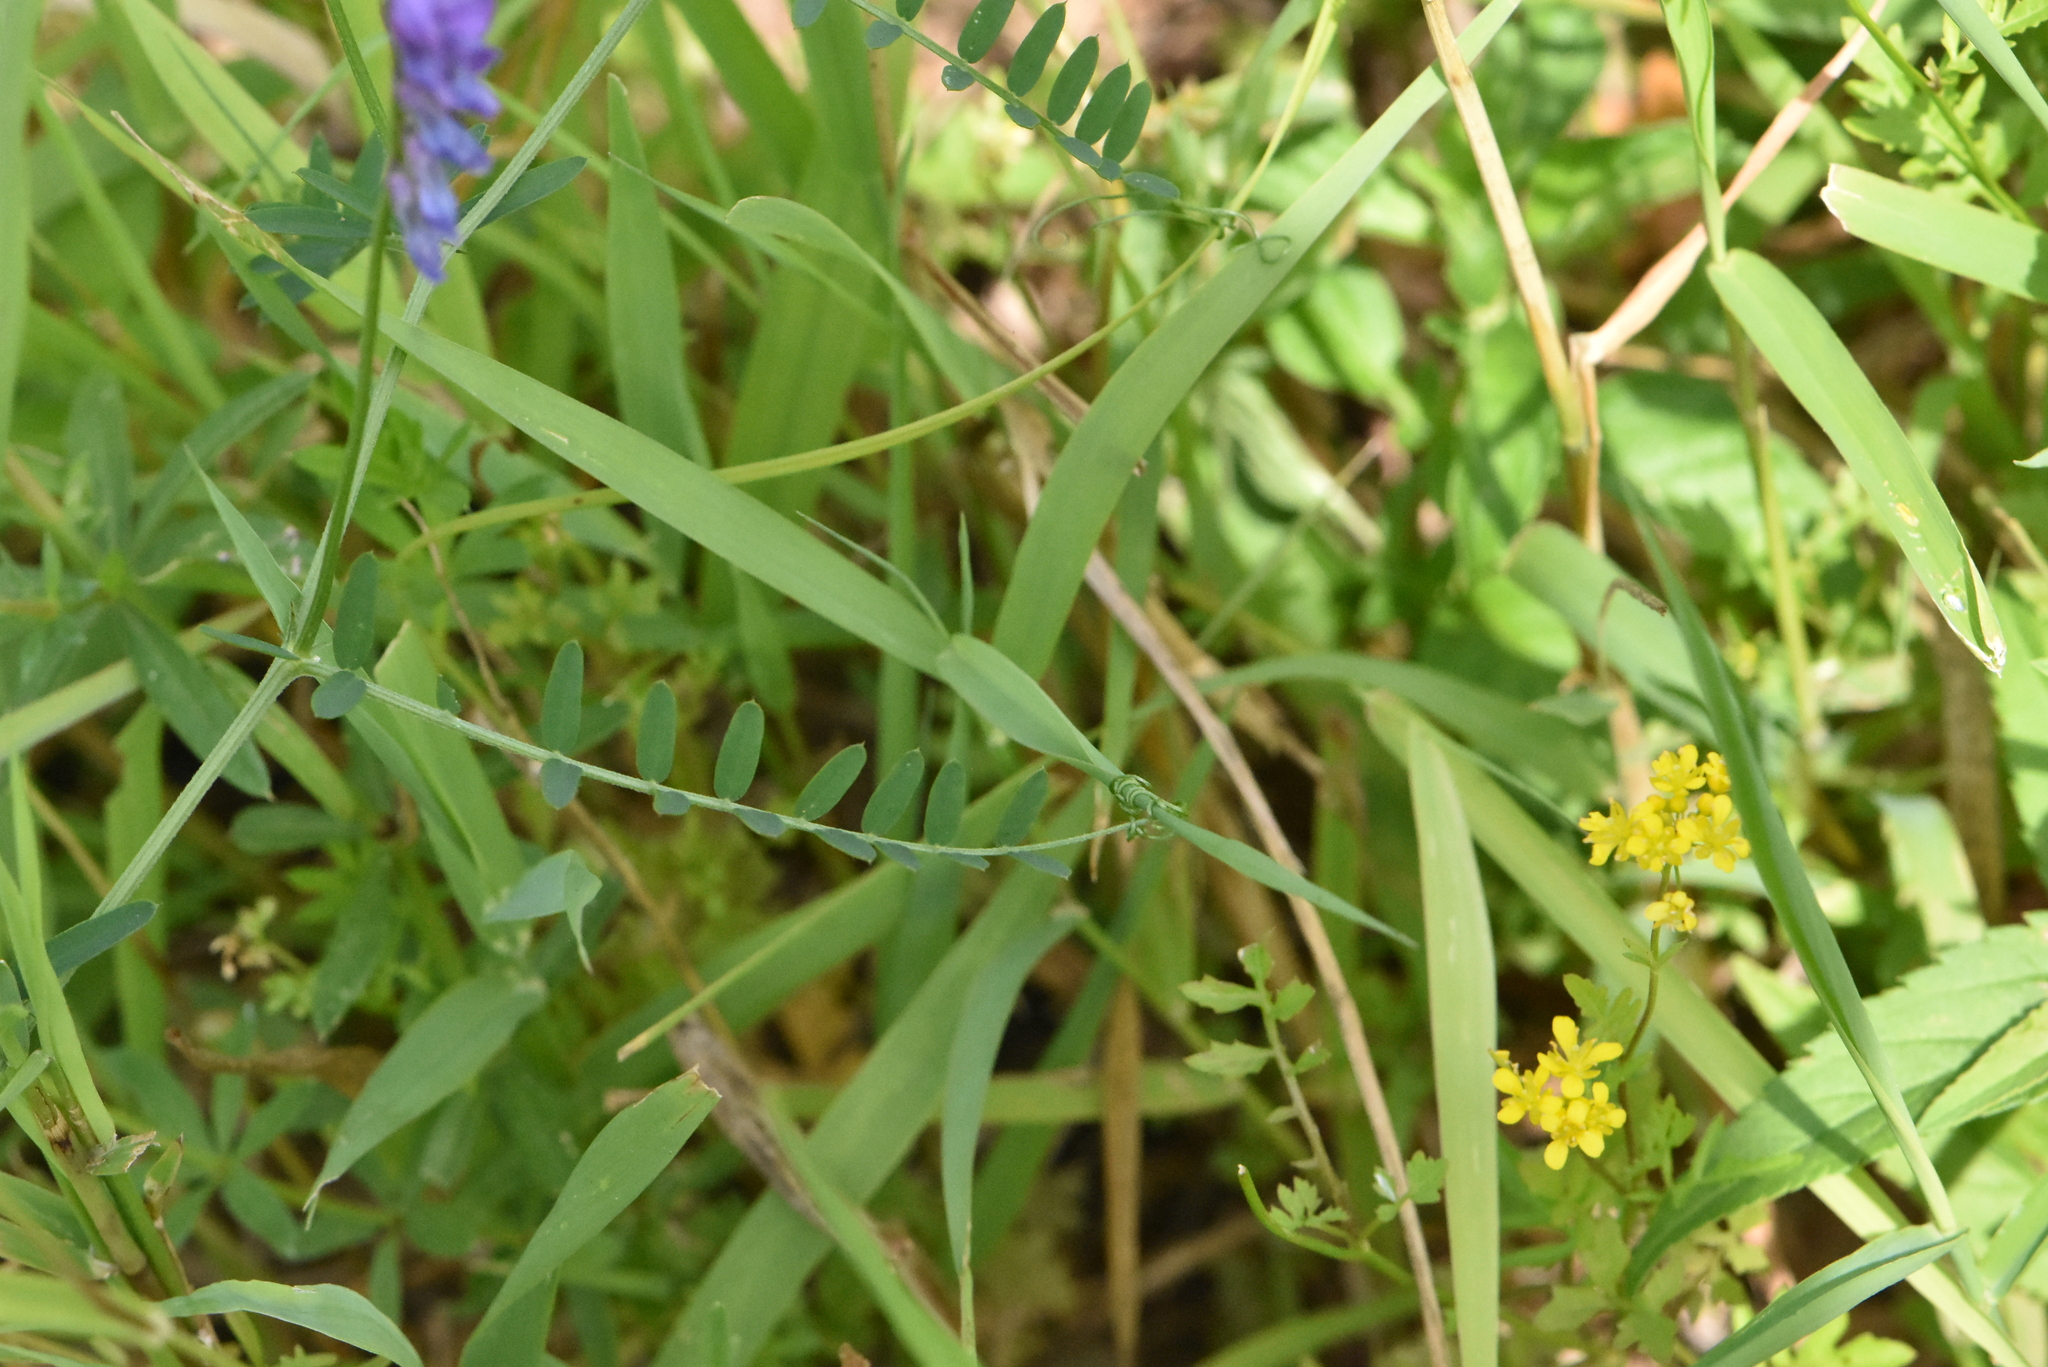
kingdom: Plantae
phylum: Tracheophyta
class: Magnoliopsida
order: Fabales
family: Fabaceae
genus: Vicia
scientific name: Vicia cracca
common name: Bird vetch
